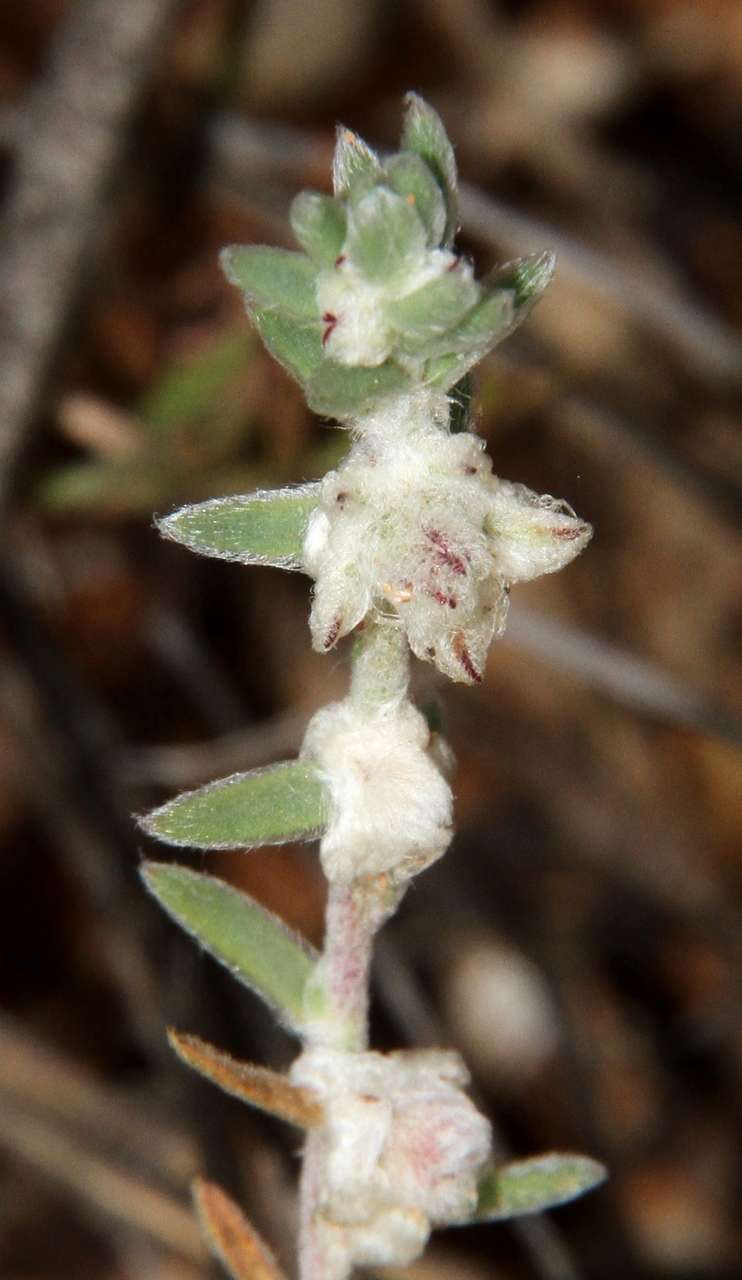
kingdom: Plantae
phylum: Tracheophyta
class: Magnoliopsida
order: Caryophyllales
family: Amaranthaceae
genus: Maireana
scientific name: Maireana sclerolaenoides
